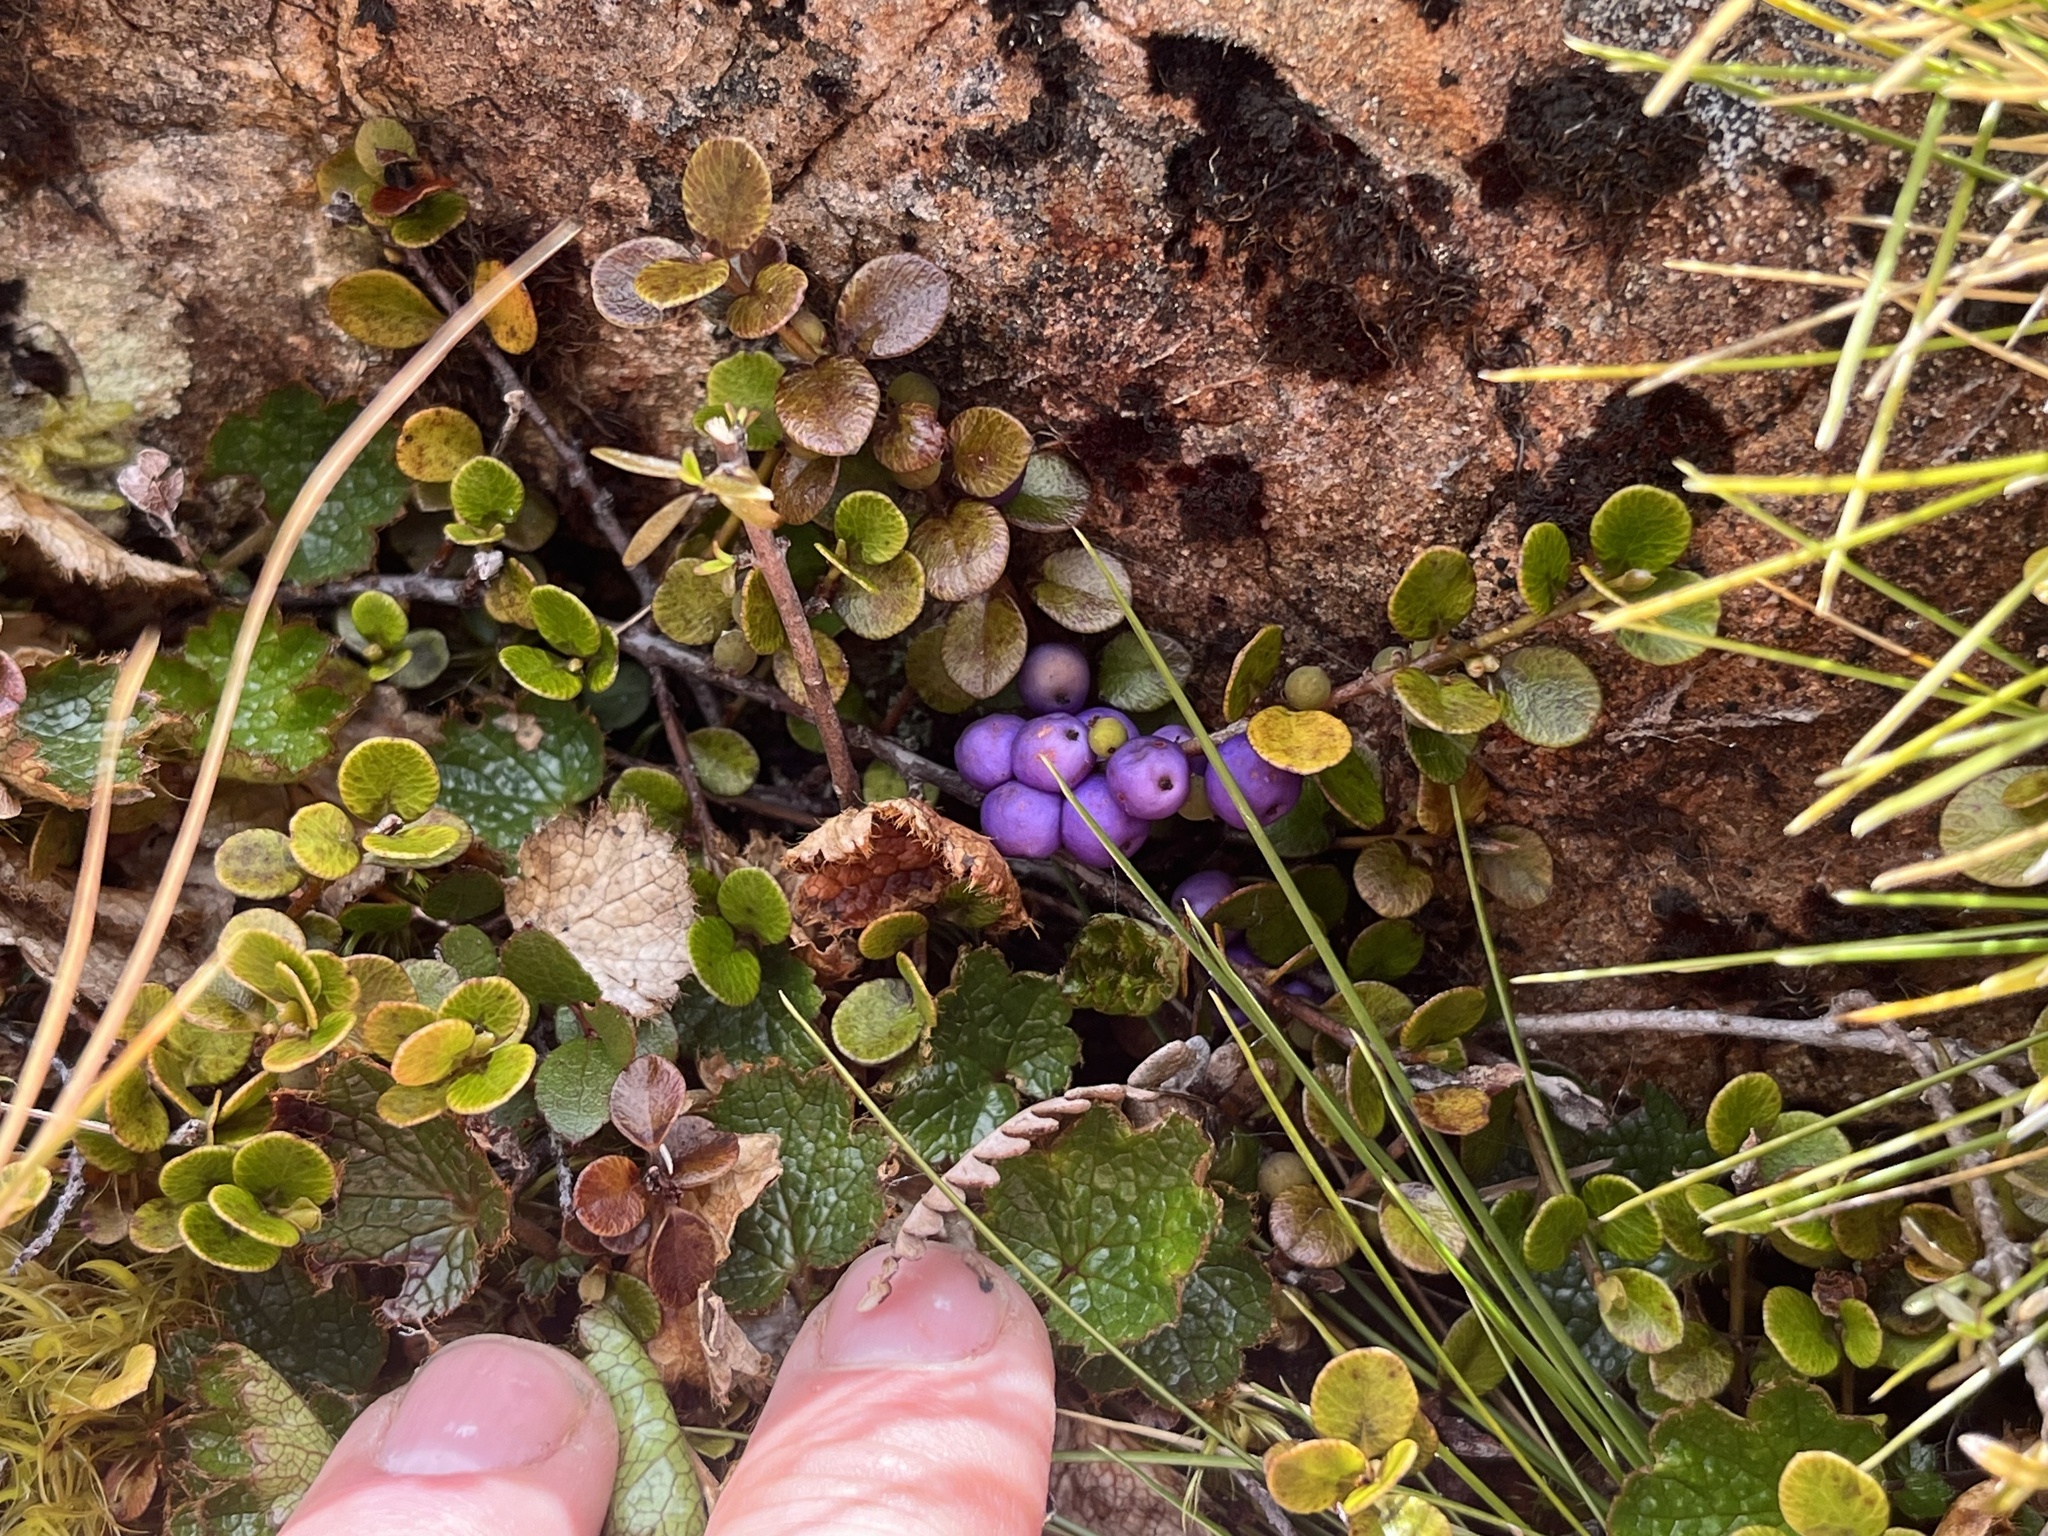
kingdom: Plantae
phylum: Tracheophyta
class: Magnoliopsida
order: Ericales
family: Primulaceae
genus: Myrsine
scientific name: Myrsine nummularia
